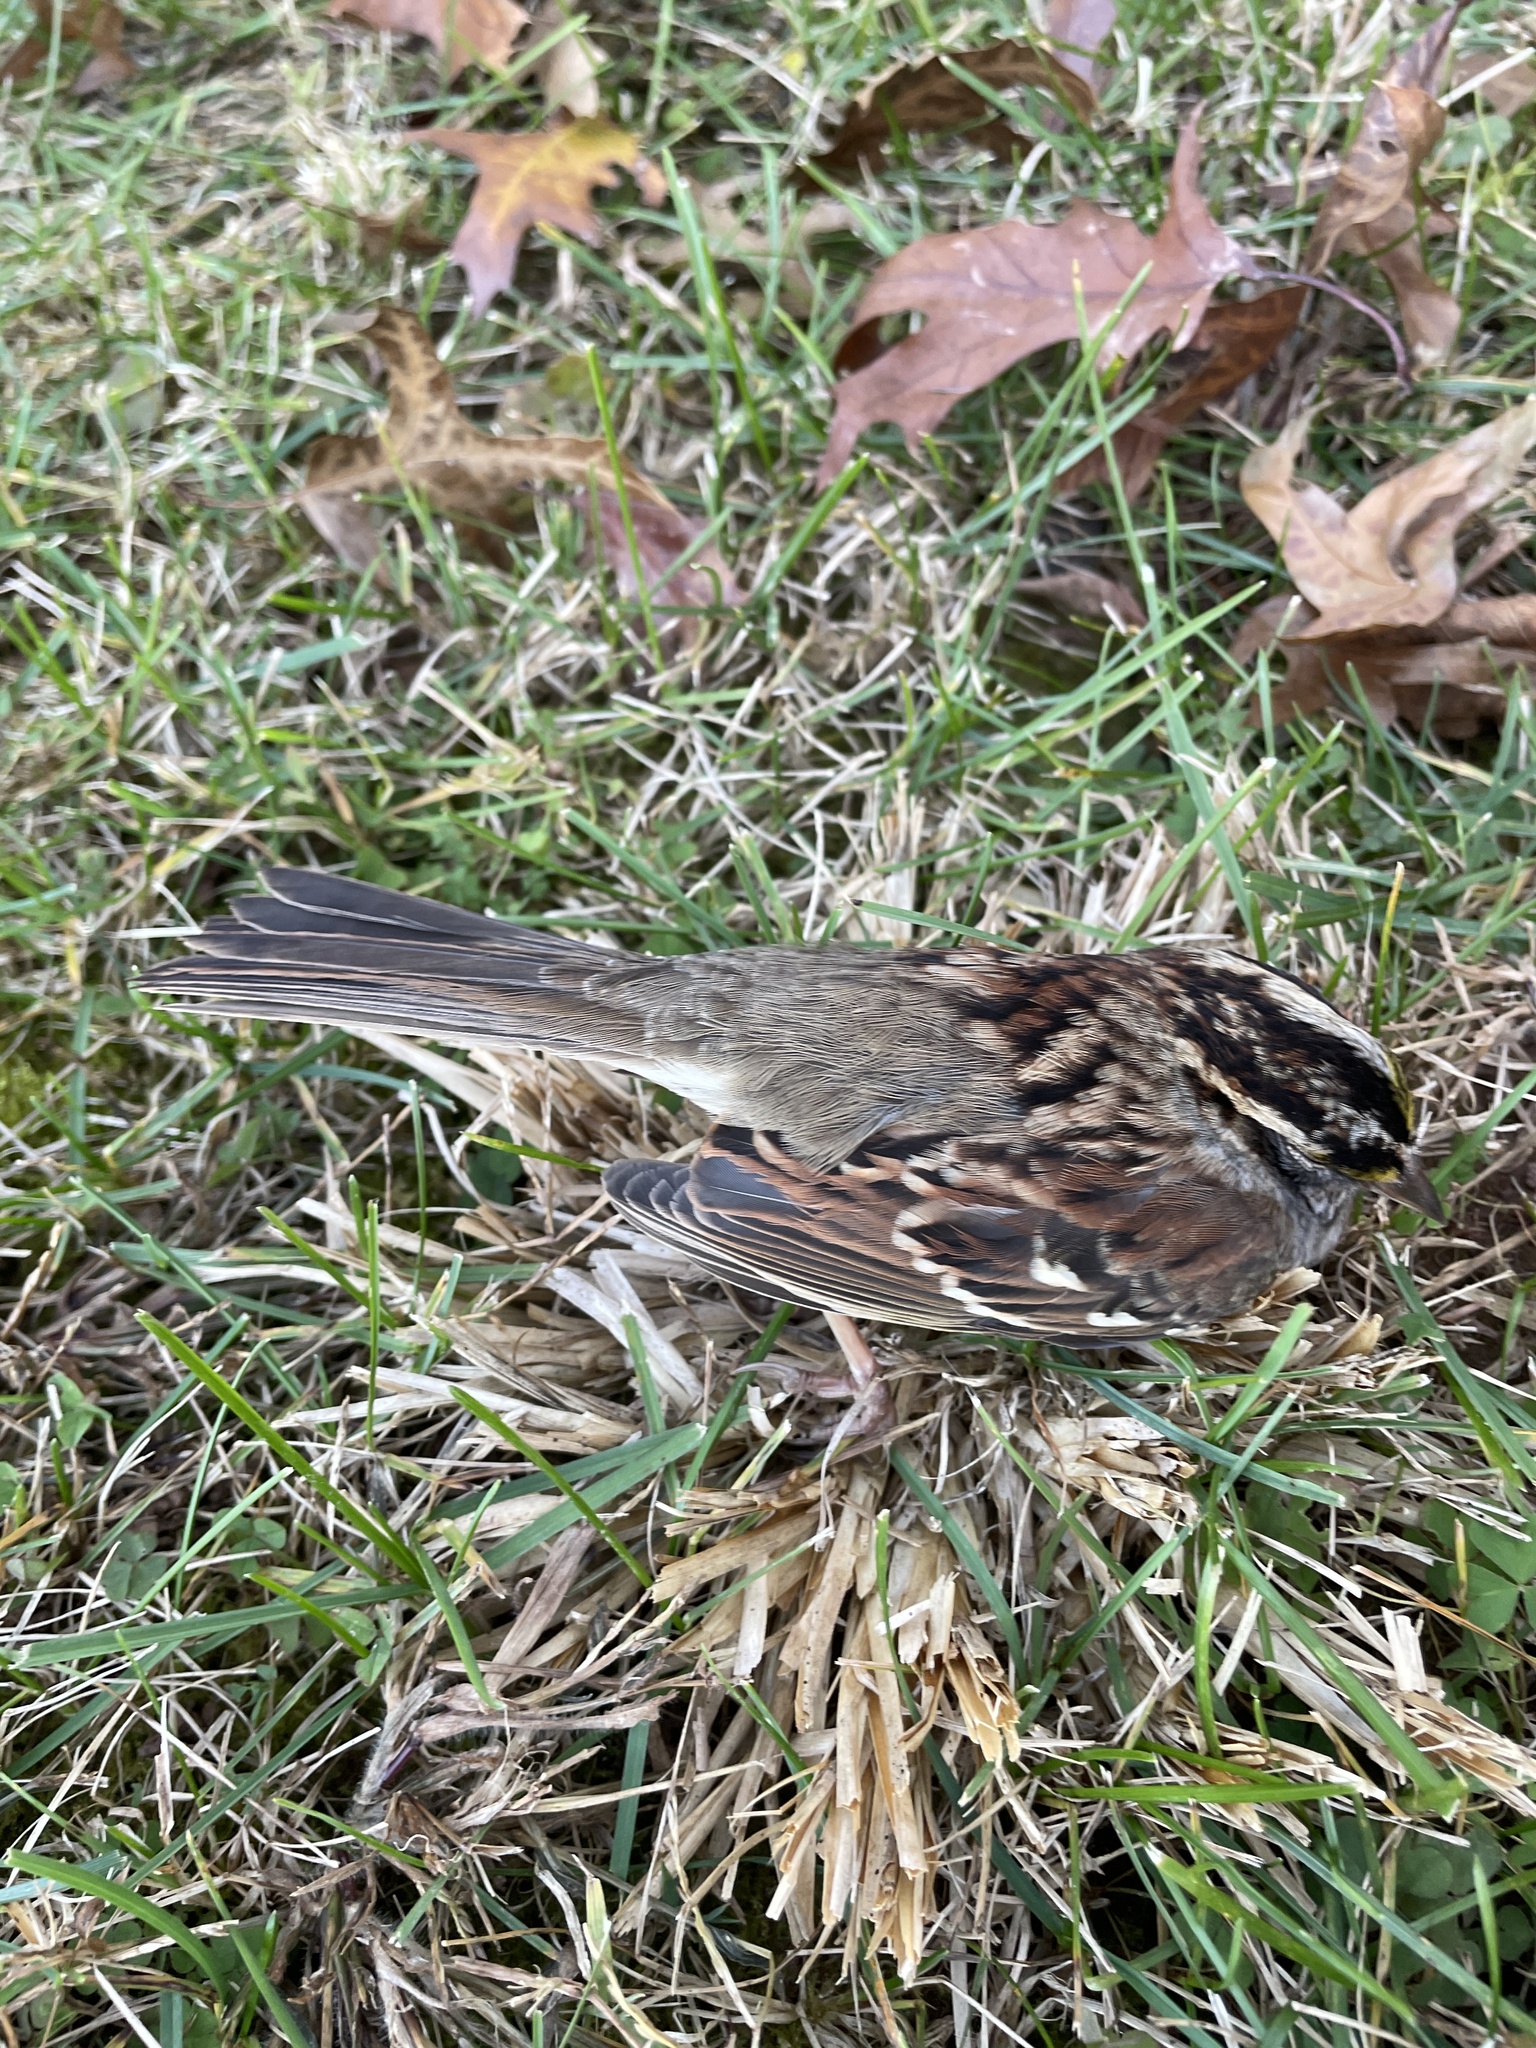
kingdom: Animalia
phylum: Chordata
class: Aves
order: Passeriformes
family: Passerellidae
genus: Zonotrichia
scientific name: Zonotrichia albicollis
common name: White-throated sparrow
